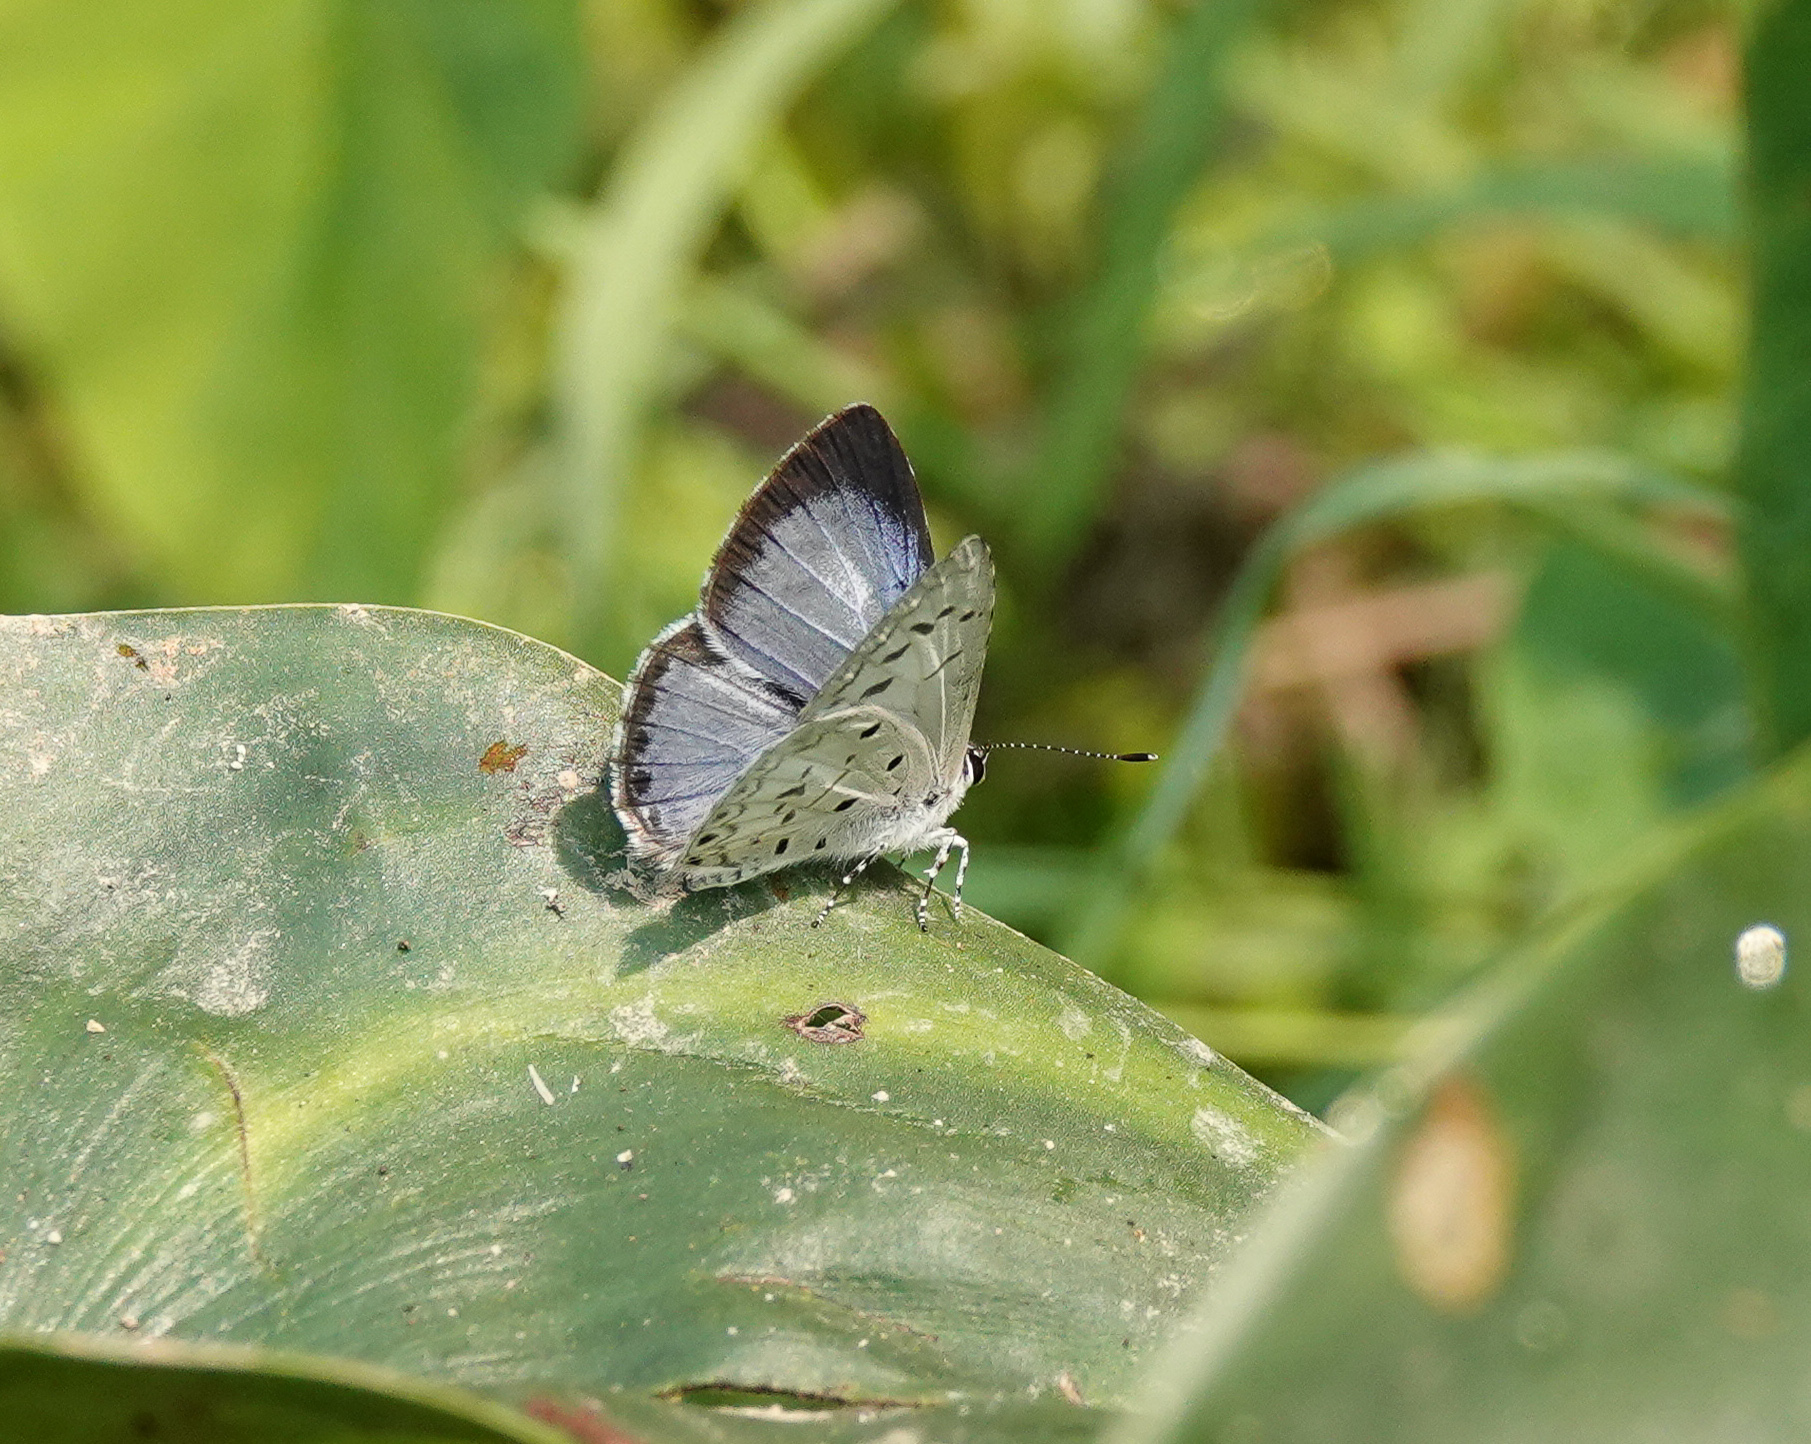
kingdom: Animalia
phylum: Arthropoda
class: Insecta
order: Lepidoptera
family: Lycaenidae
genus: Acytolepis
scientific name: Acytolepis puspa
